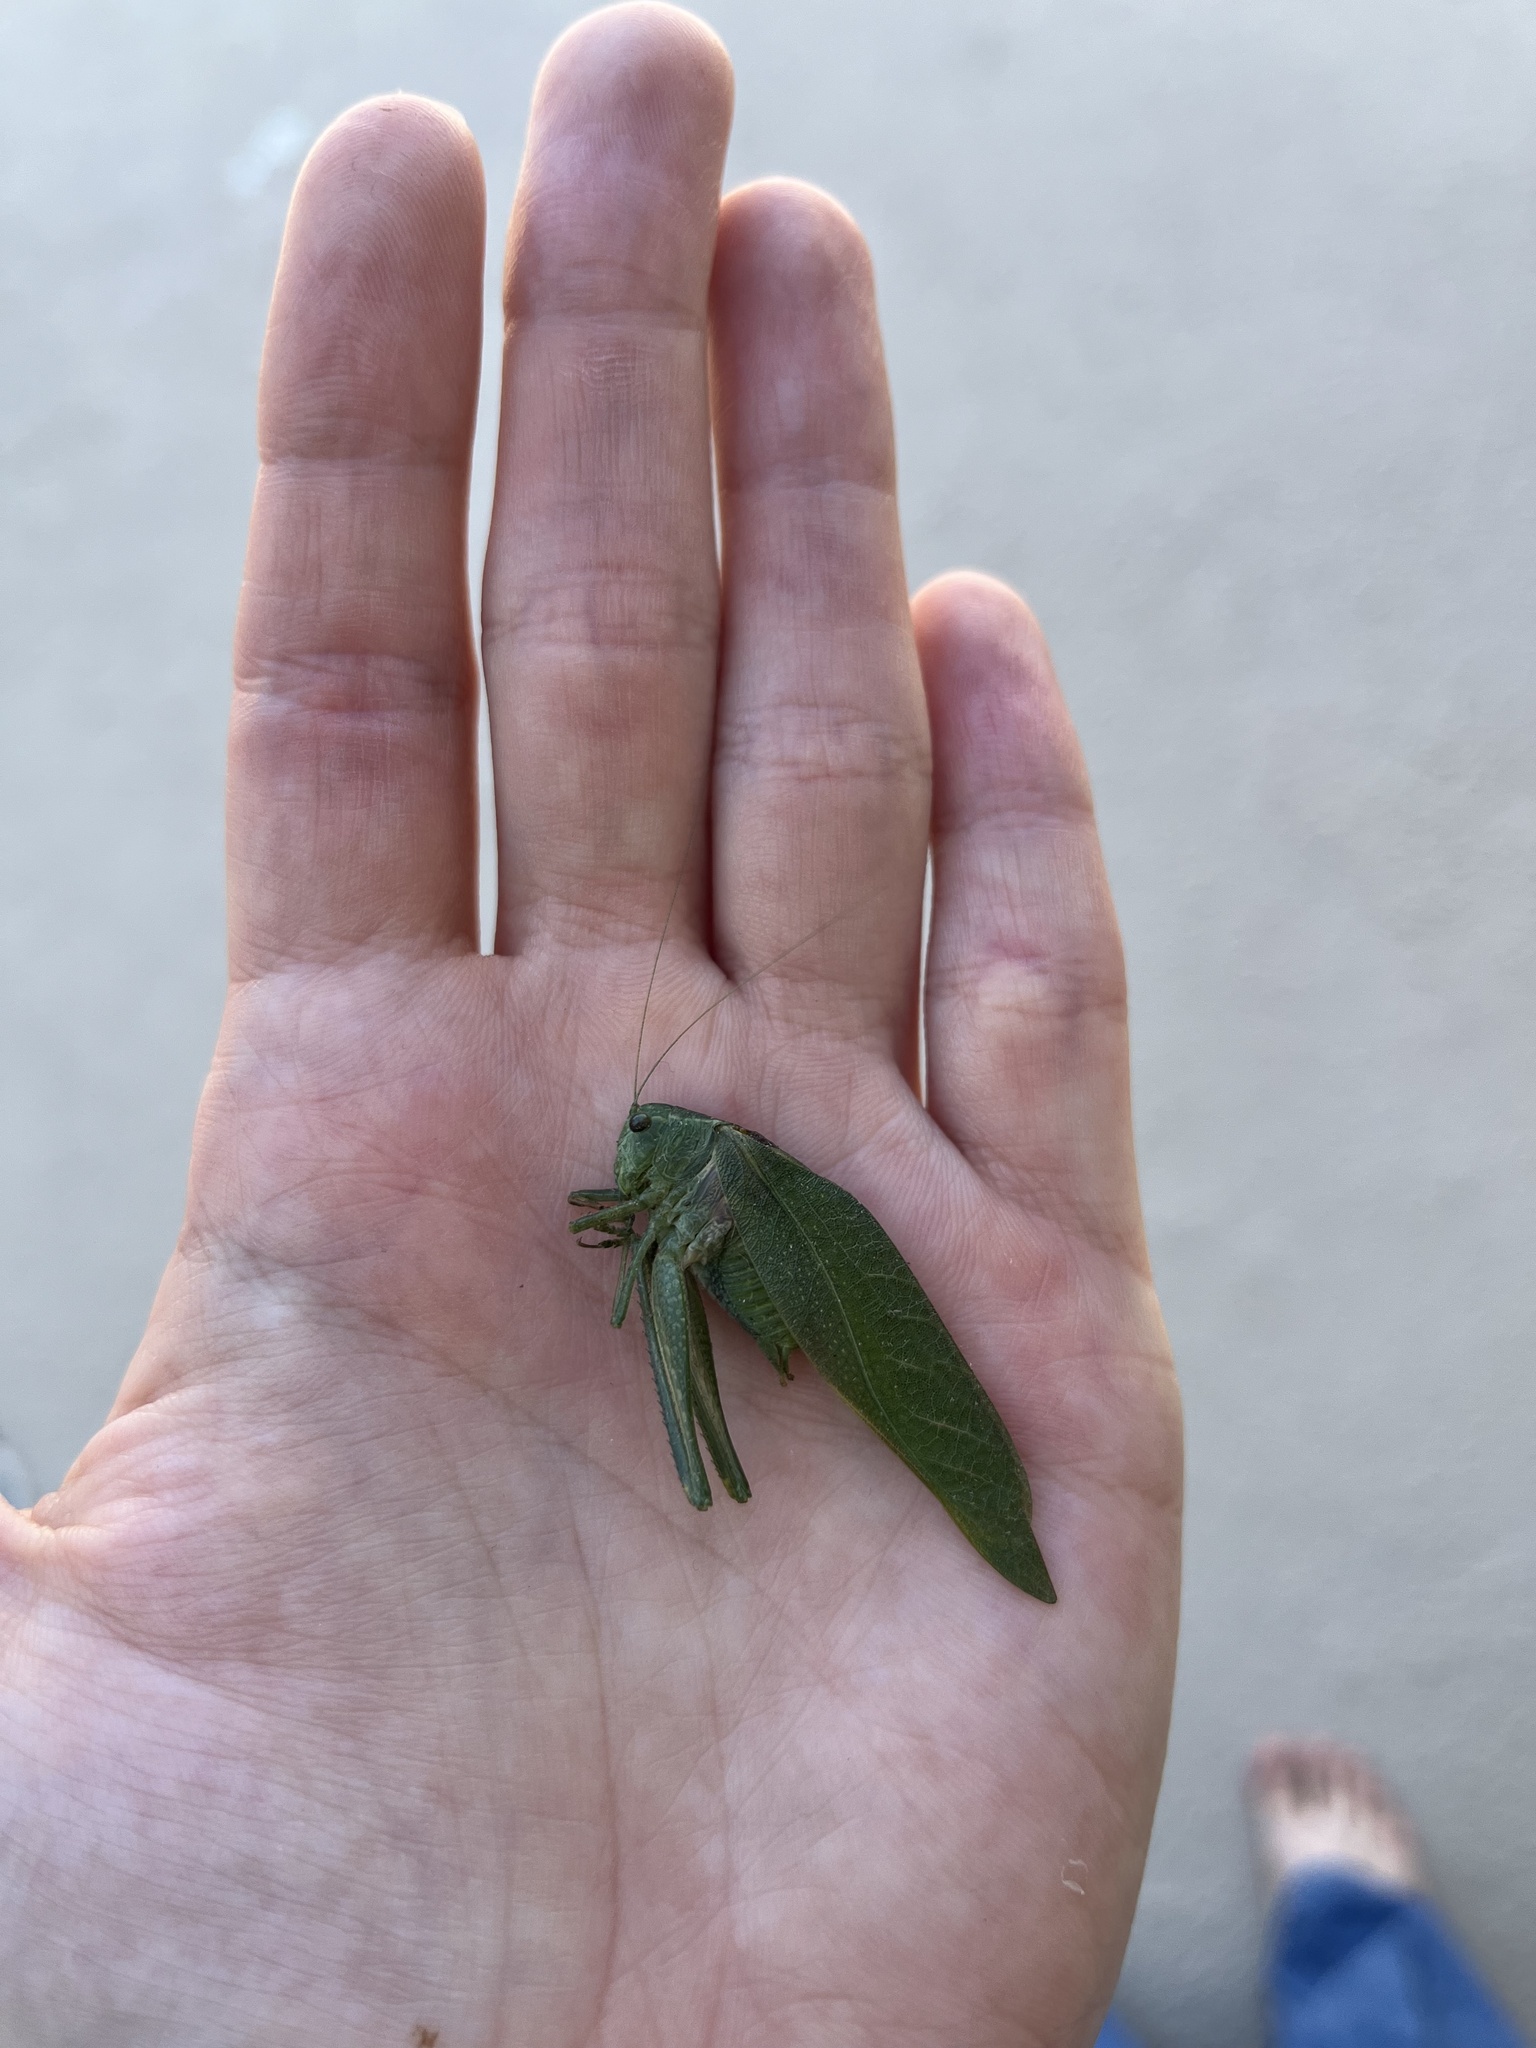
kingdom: Animalia
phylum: Arthropoda
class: Insecta
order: Orthoptera
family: Tettigoniidae
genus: Microcentrum
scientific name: Microcentrum californicum
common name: California angle-wing
